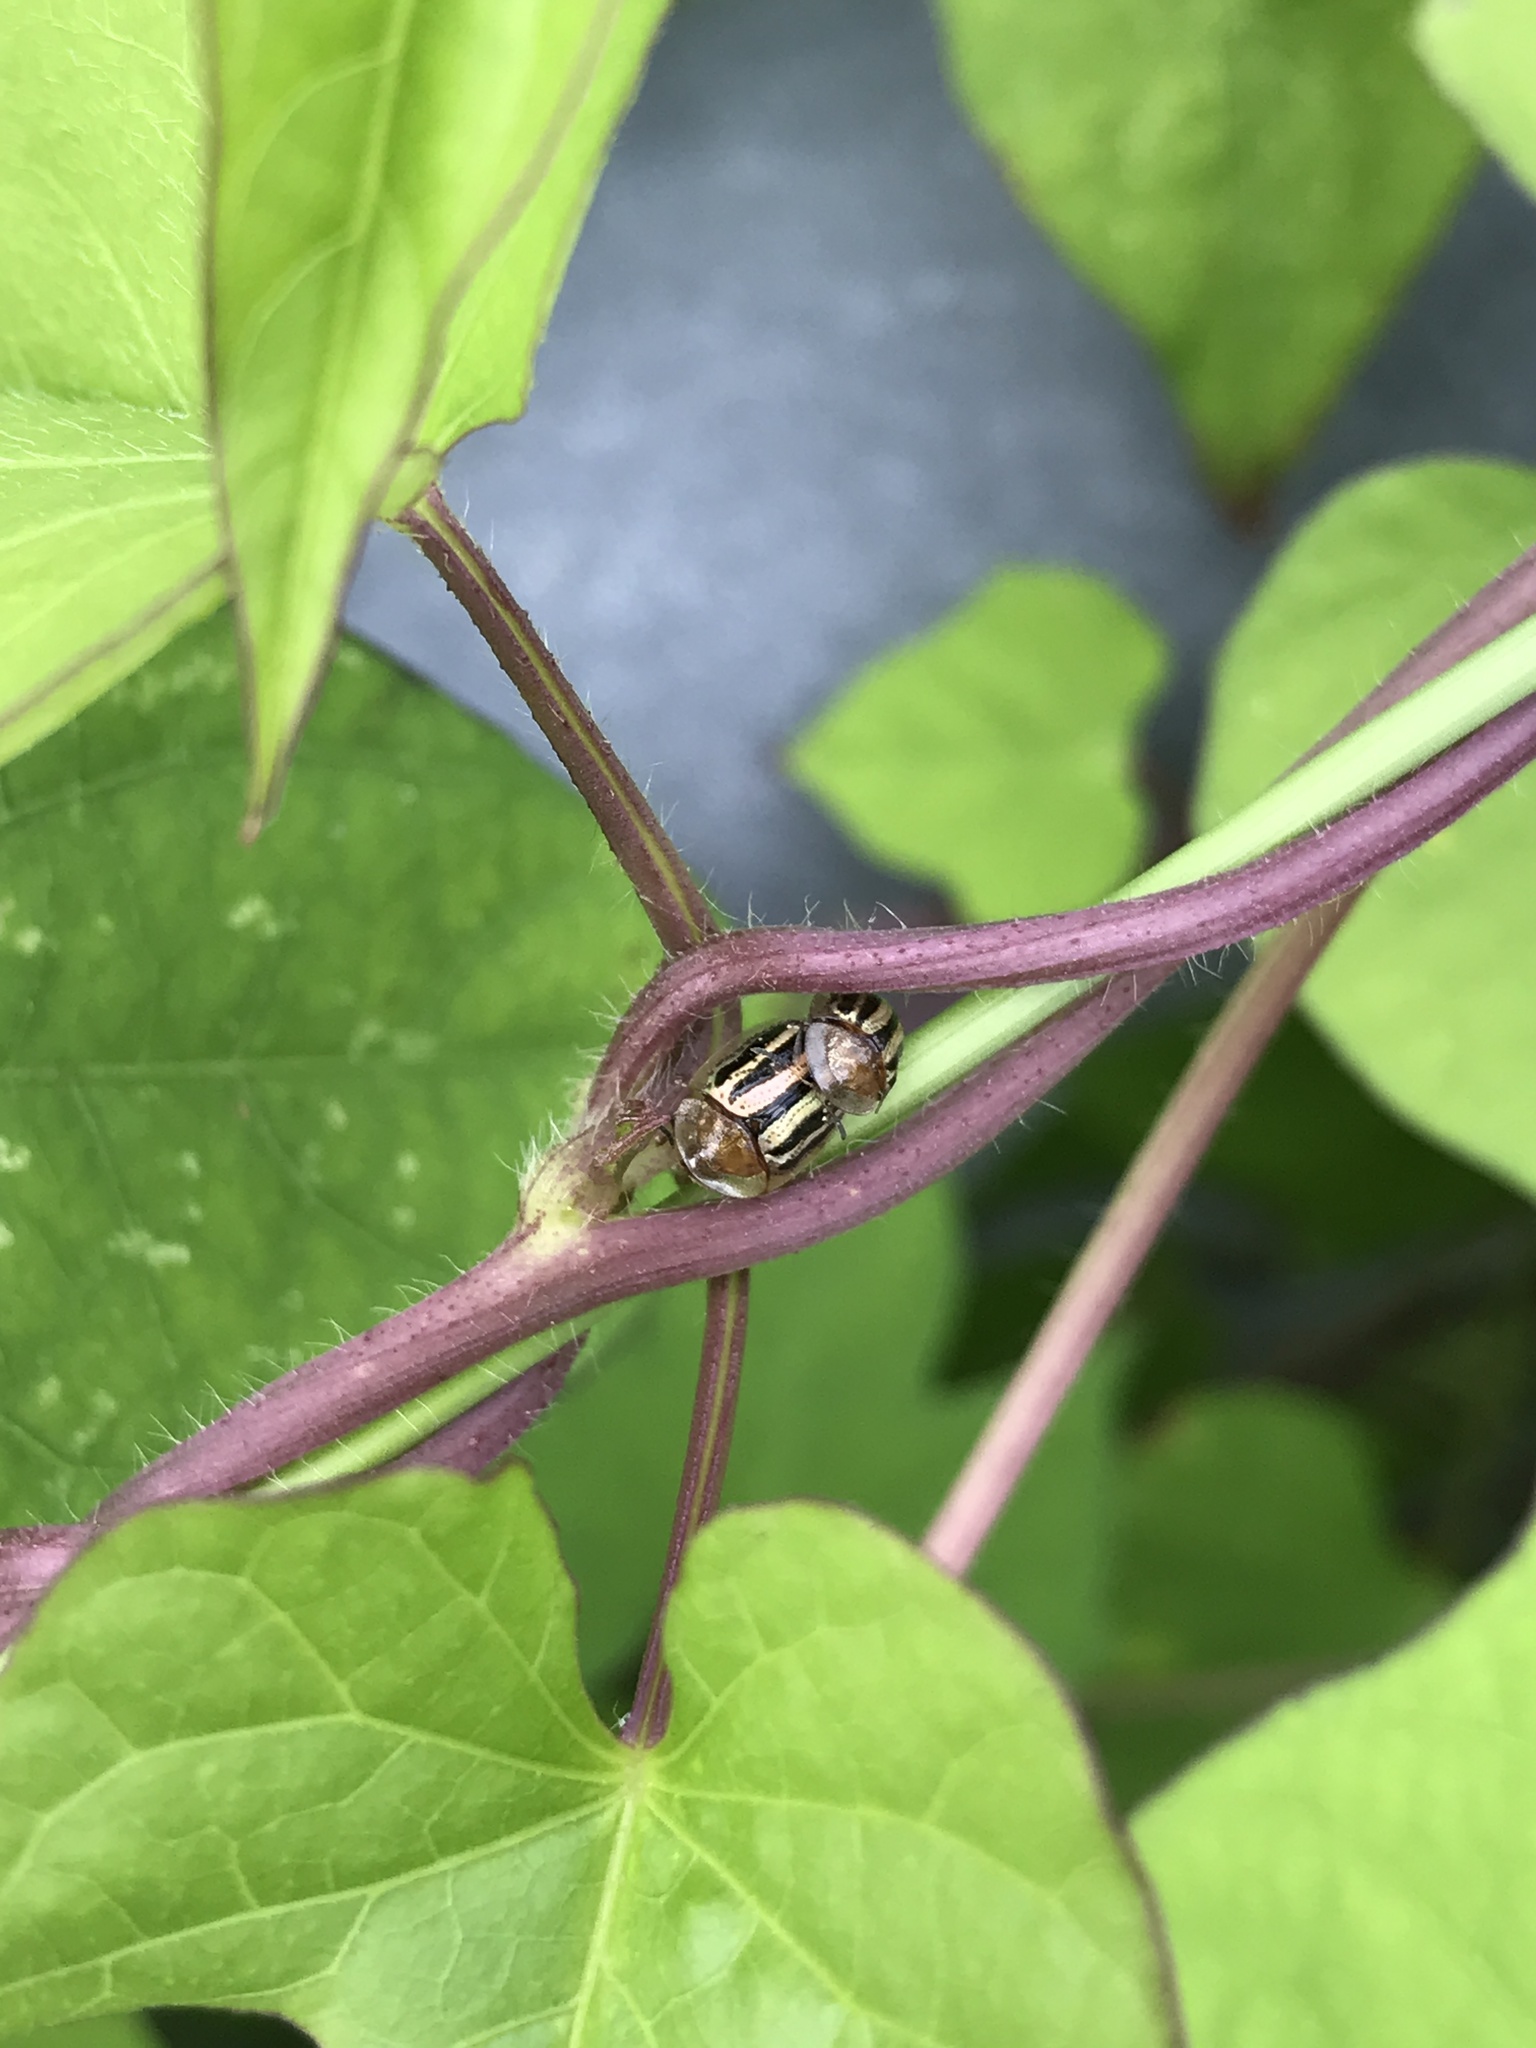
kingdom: Animalia
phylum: Arthropoda
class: Insecta
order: Coleoptera
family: Chrysomelidae
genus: Agroiconota
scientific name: Agroiconota bivittata
